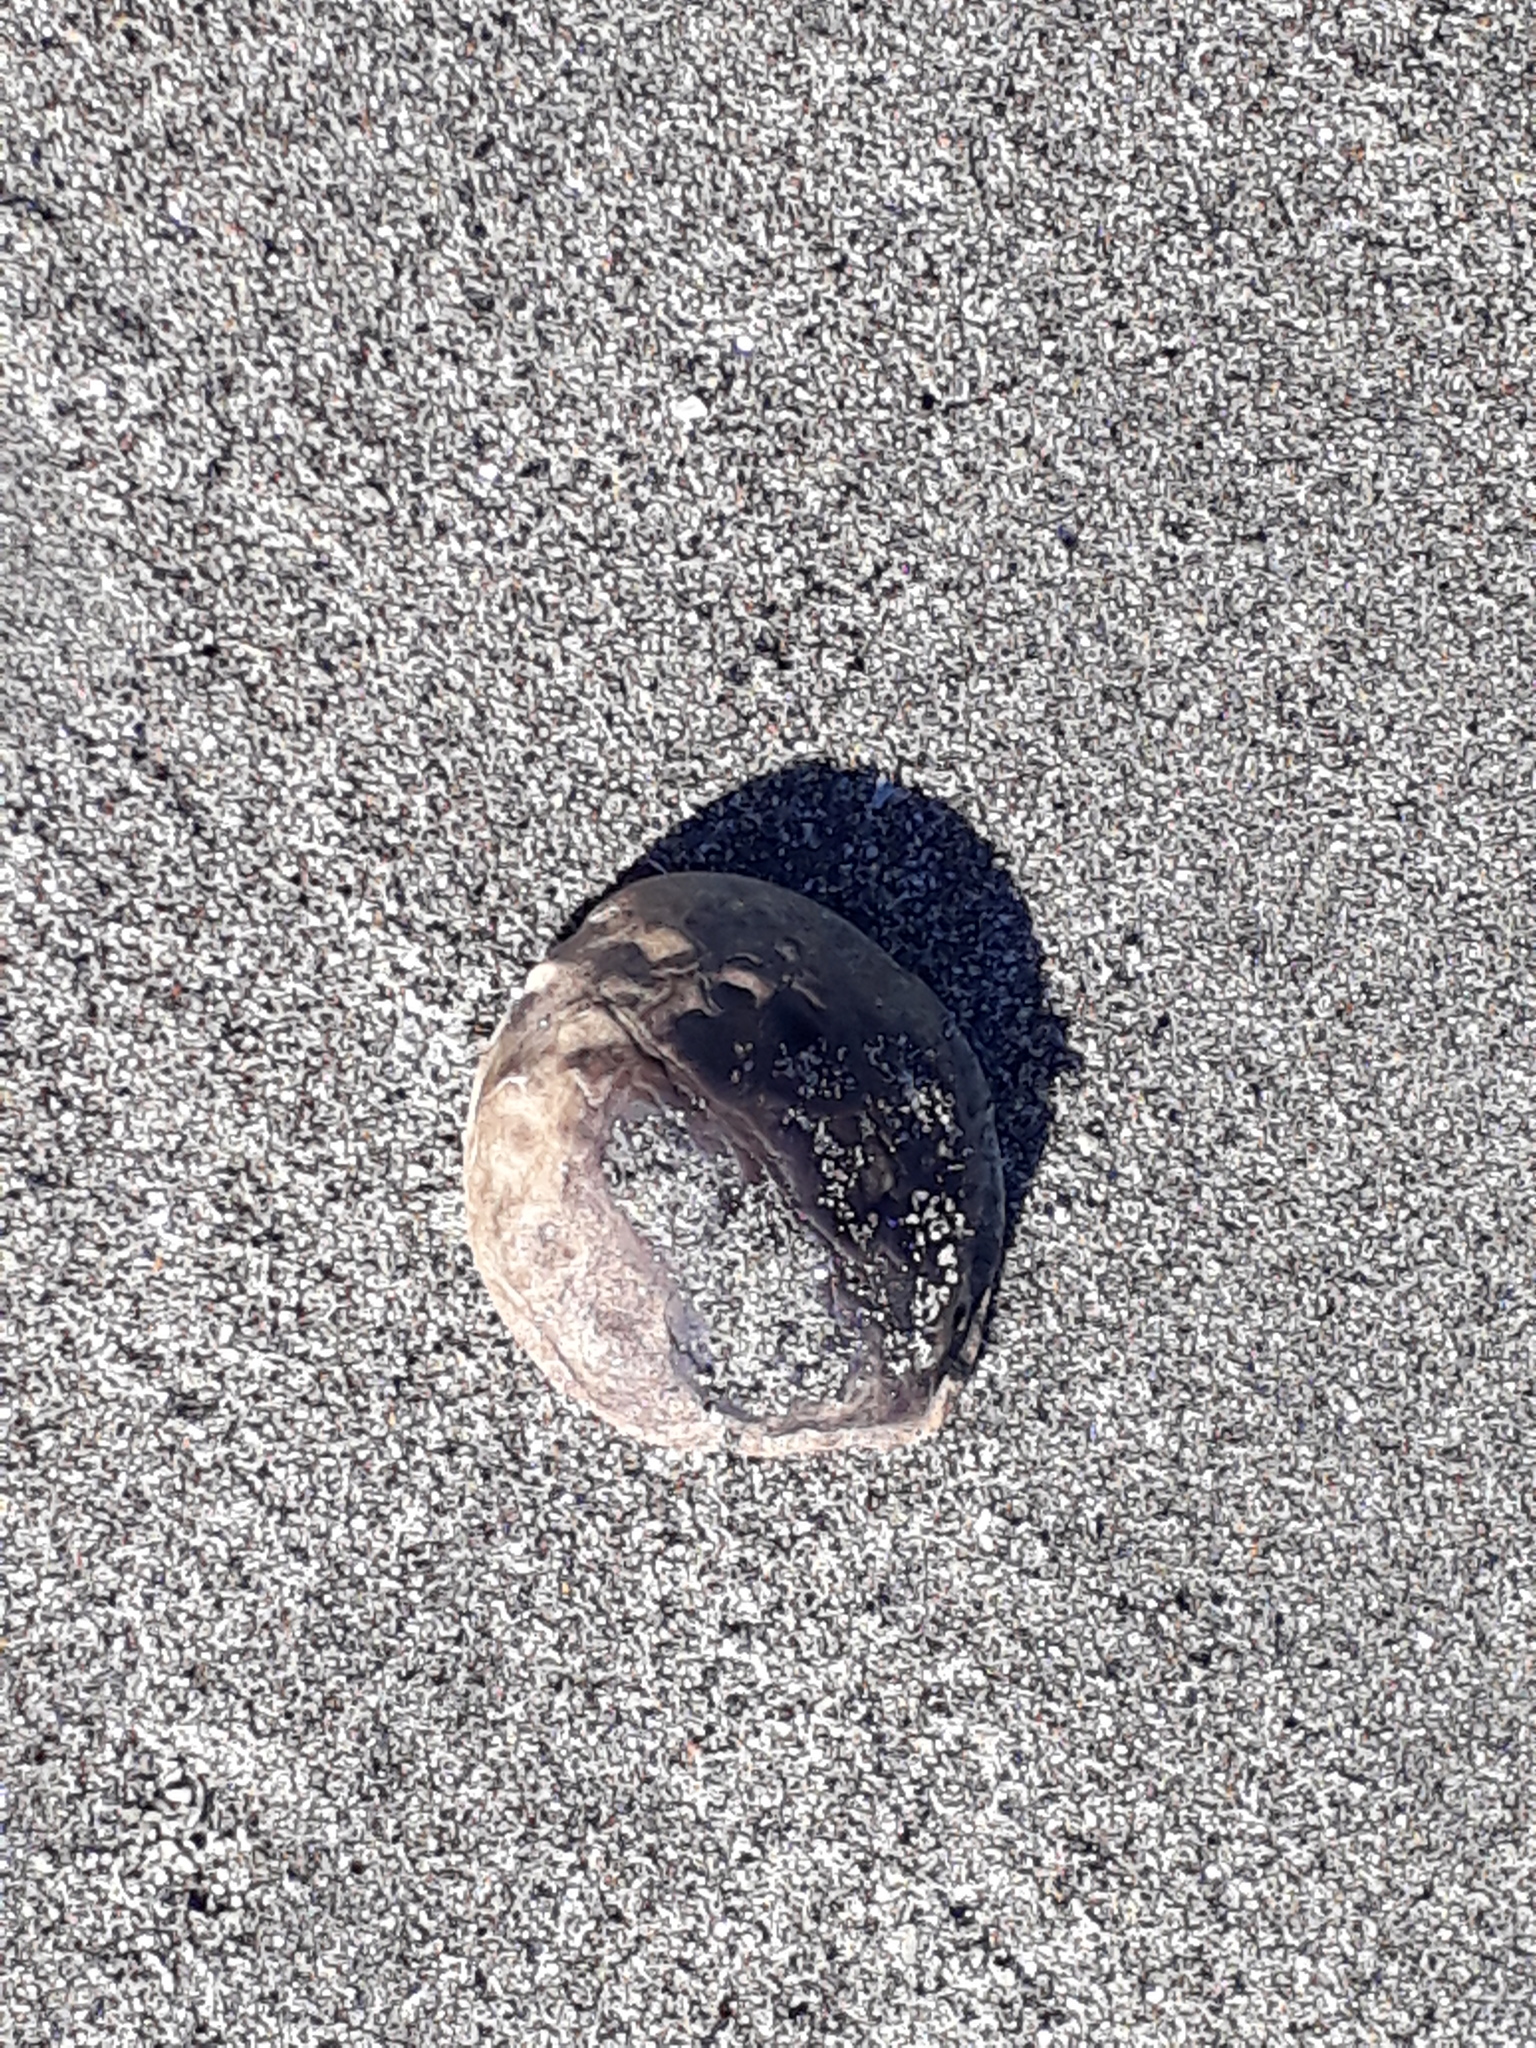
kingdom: Plantae
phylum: Tracheophyta
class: Magnoliopsida
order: Fagales
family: Juglandaceae
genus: Juglans
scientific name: Juglans regia
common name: Walnut
